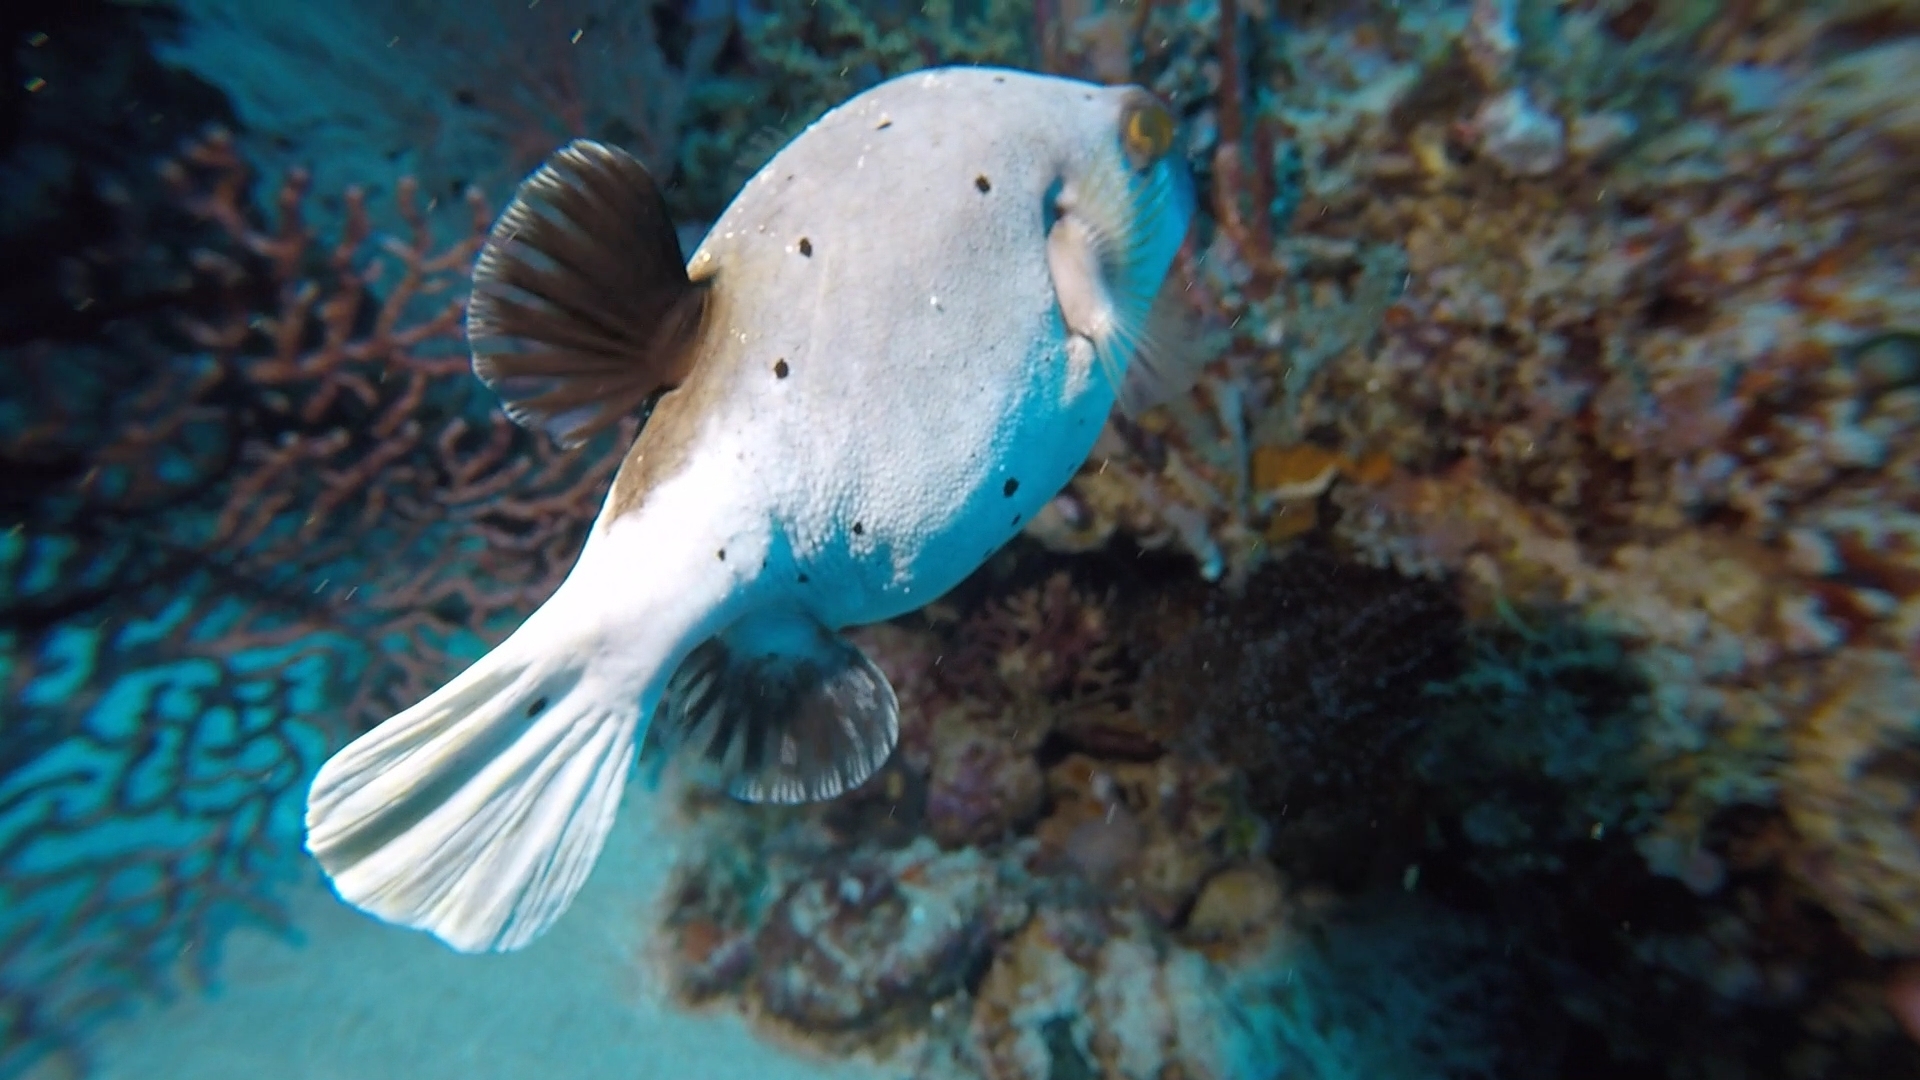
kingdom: Animalia
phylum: Chordata
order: Tetraodontiformes
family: Tetraodontidae
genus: Arothron
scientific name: Arothron nigropunctatus
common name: Black spotted blow fish
